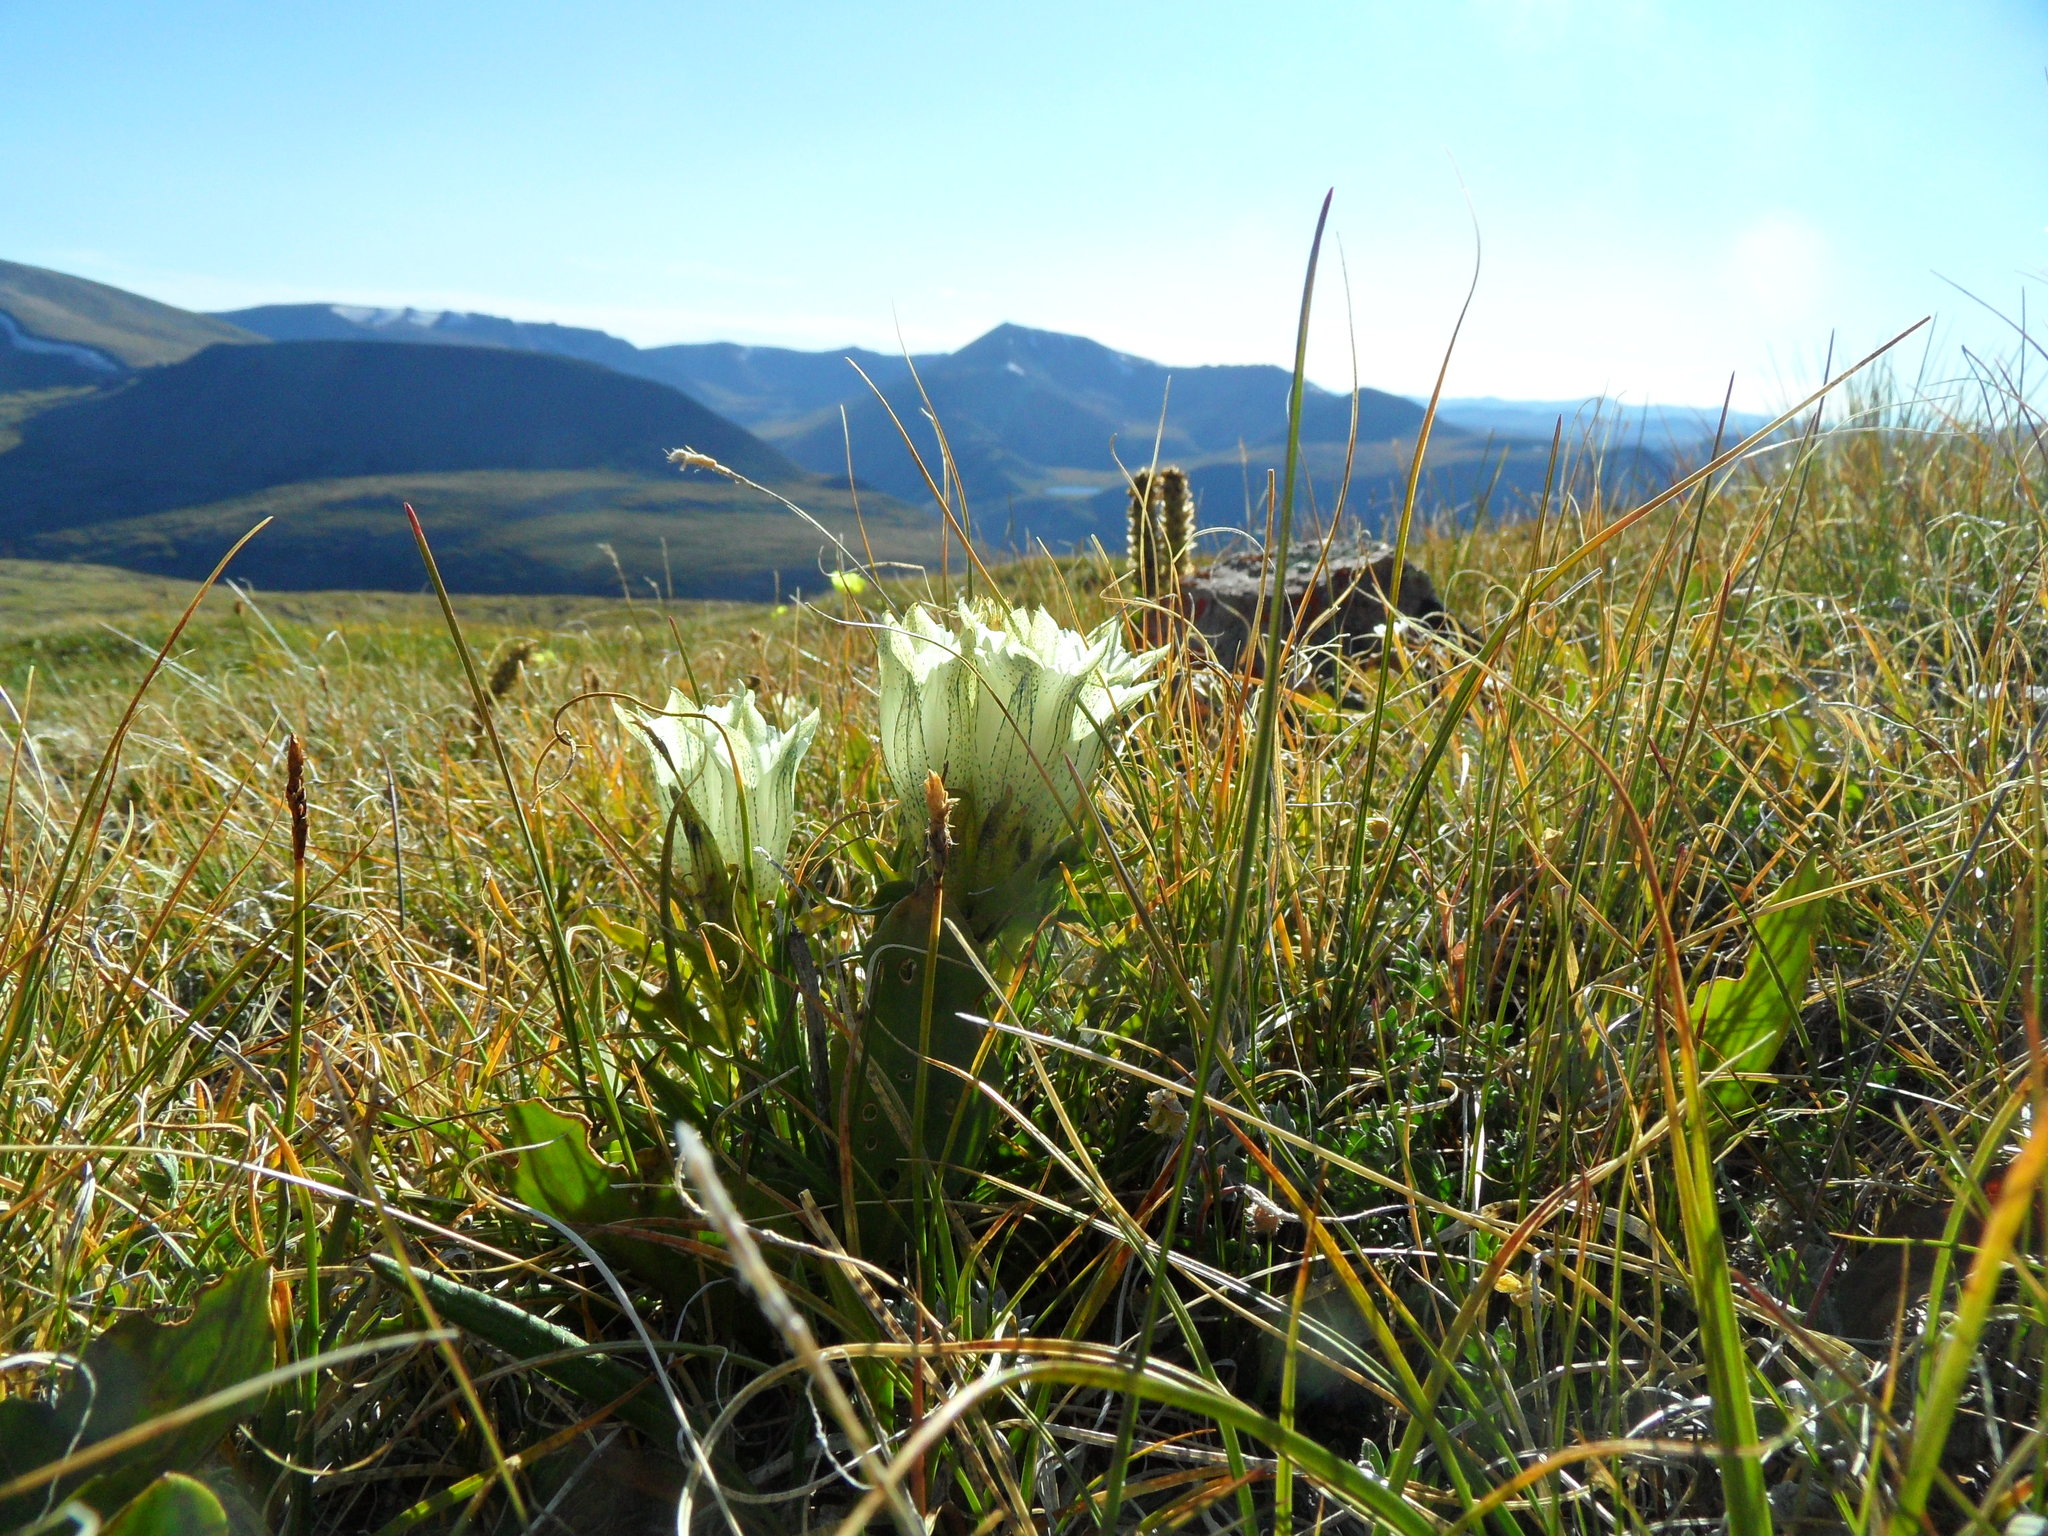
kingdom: Plantae
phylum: Tracheophyta
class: Magnoliopsida
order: Gentianales
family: Gentianaceae
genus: Gentiana
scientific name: Gentiana algida
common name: Arctic gentian
